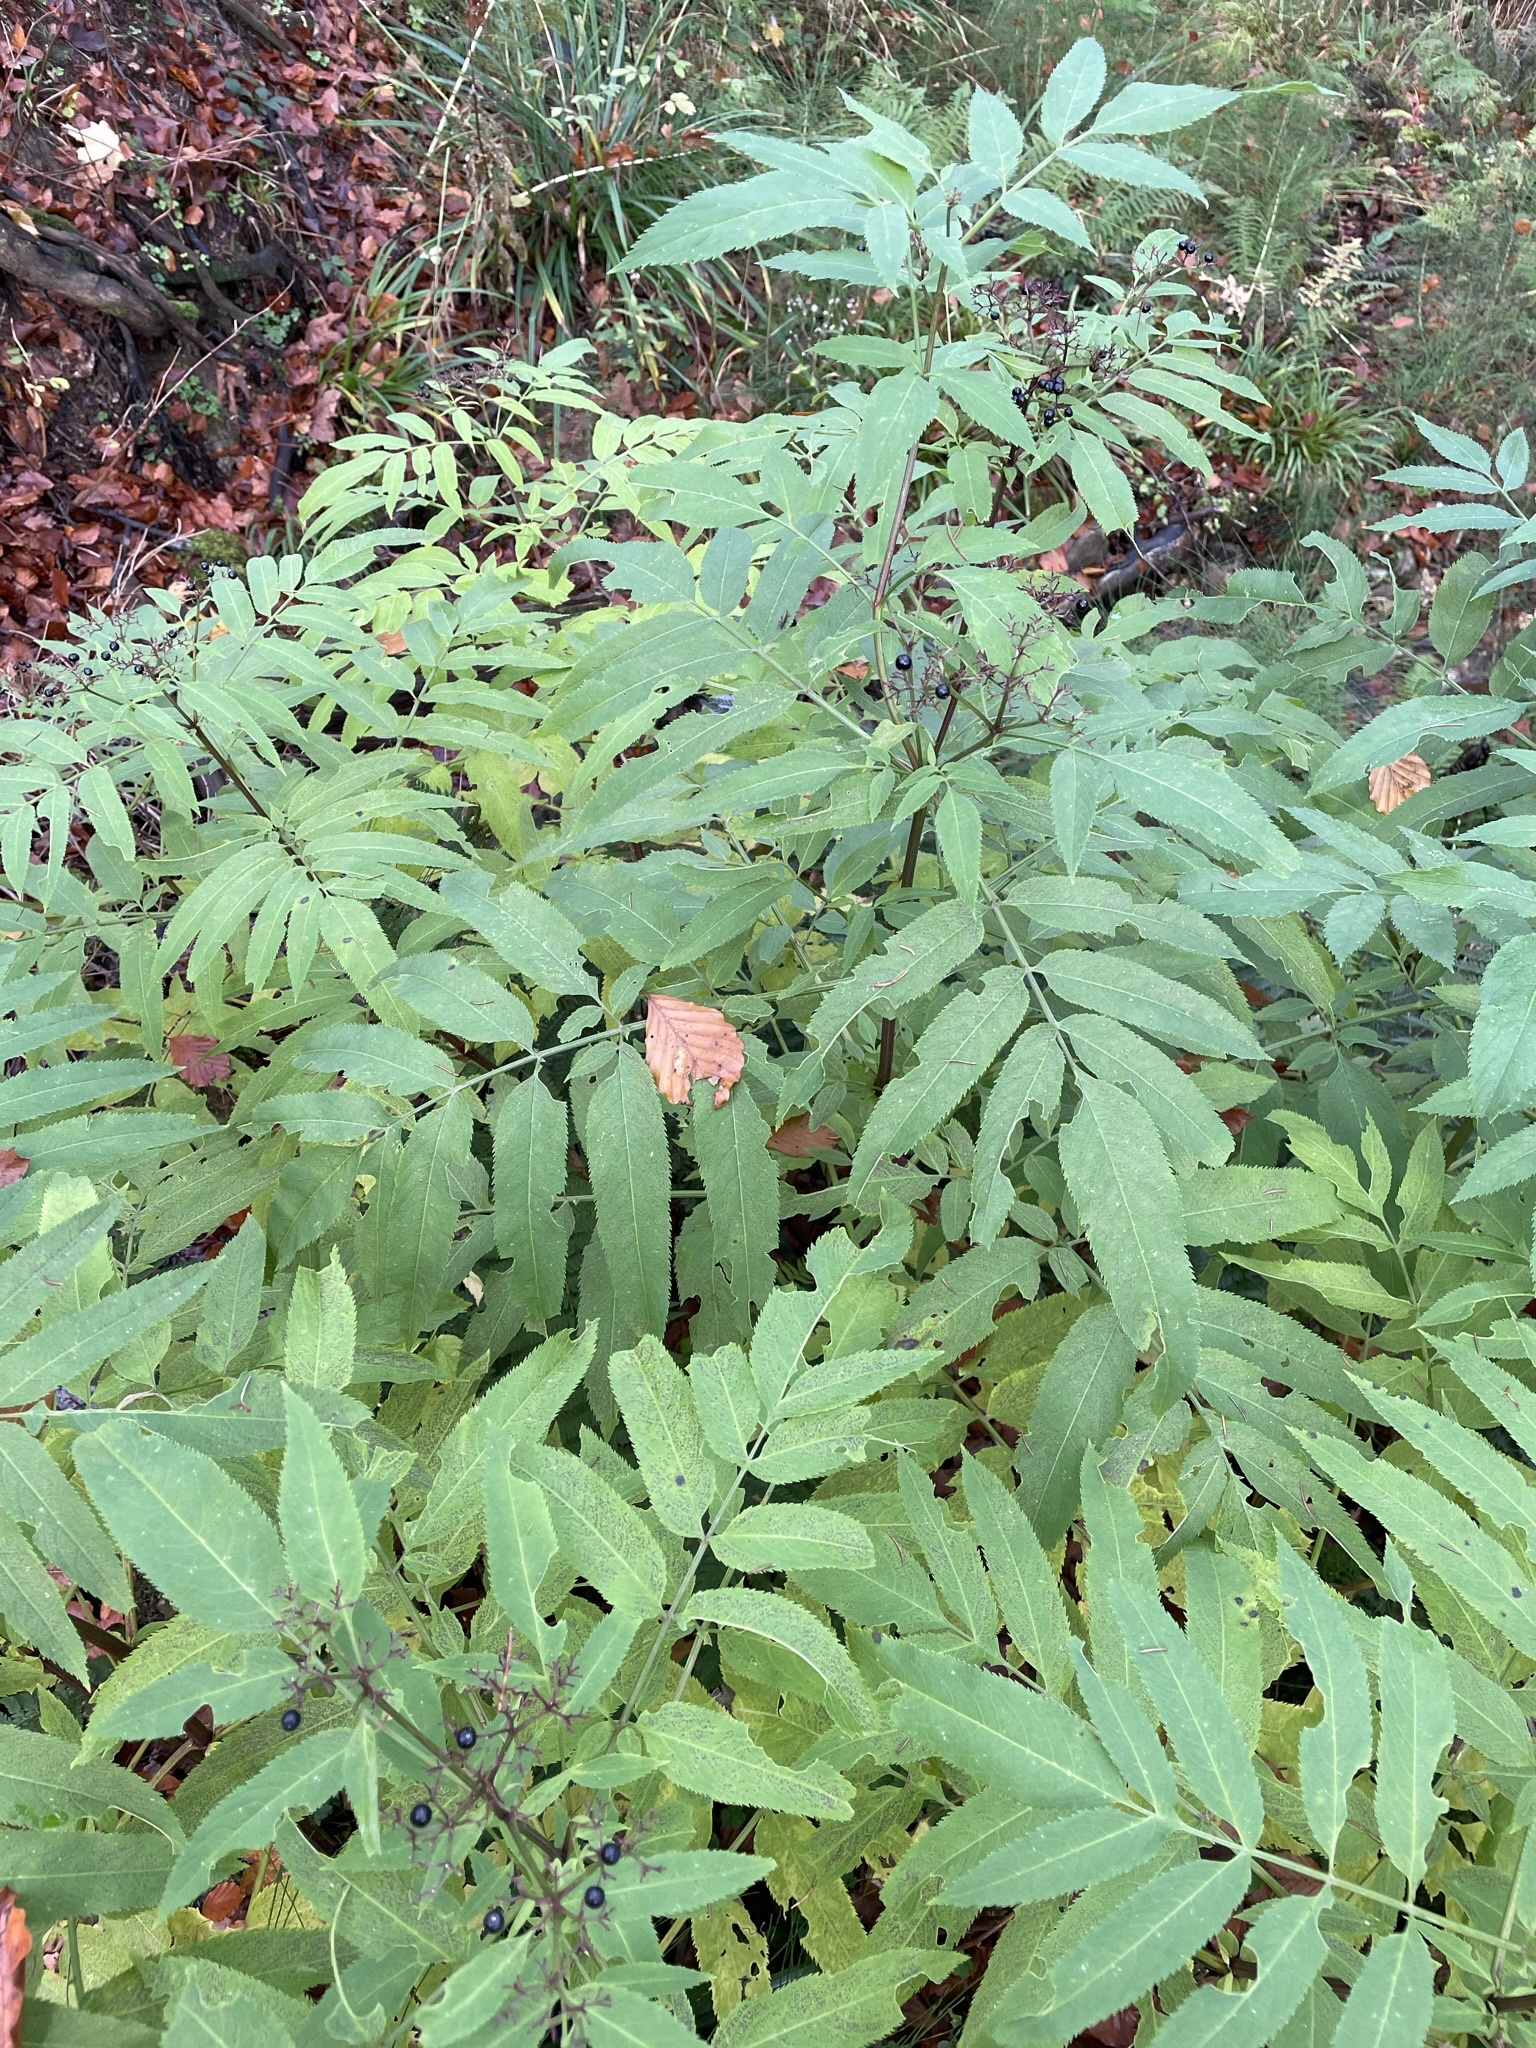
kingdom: Plantae
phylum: Tracheophyta
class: Magnoliopsida
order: Dipsacales
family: Viburnaceae
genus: Sambucus
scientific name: Sambucus ebulus
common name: Dwarf elder
